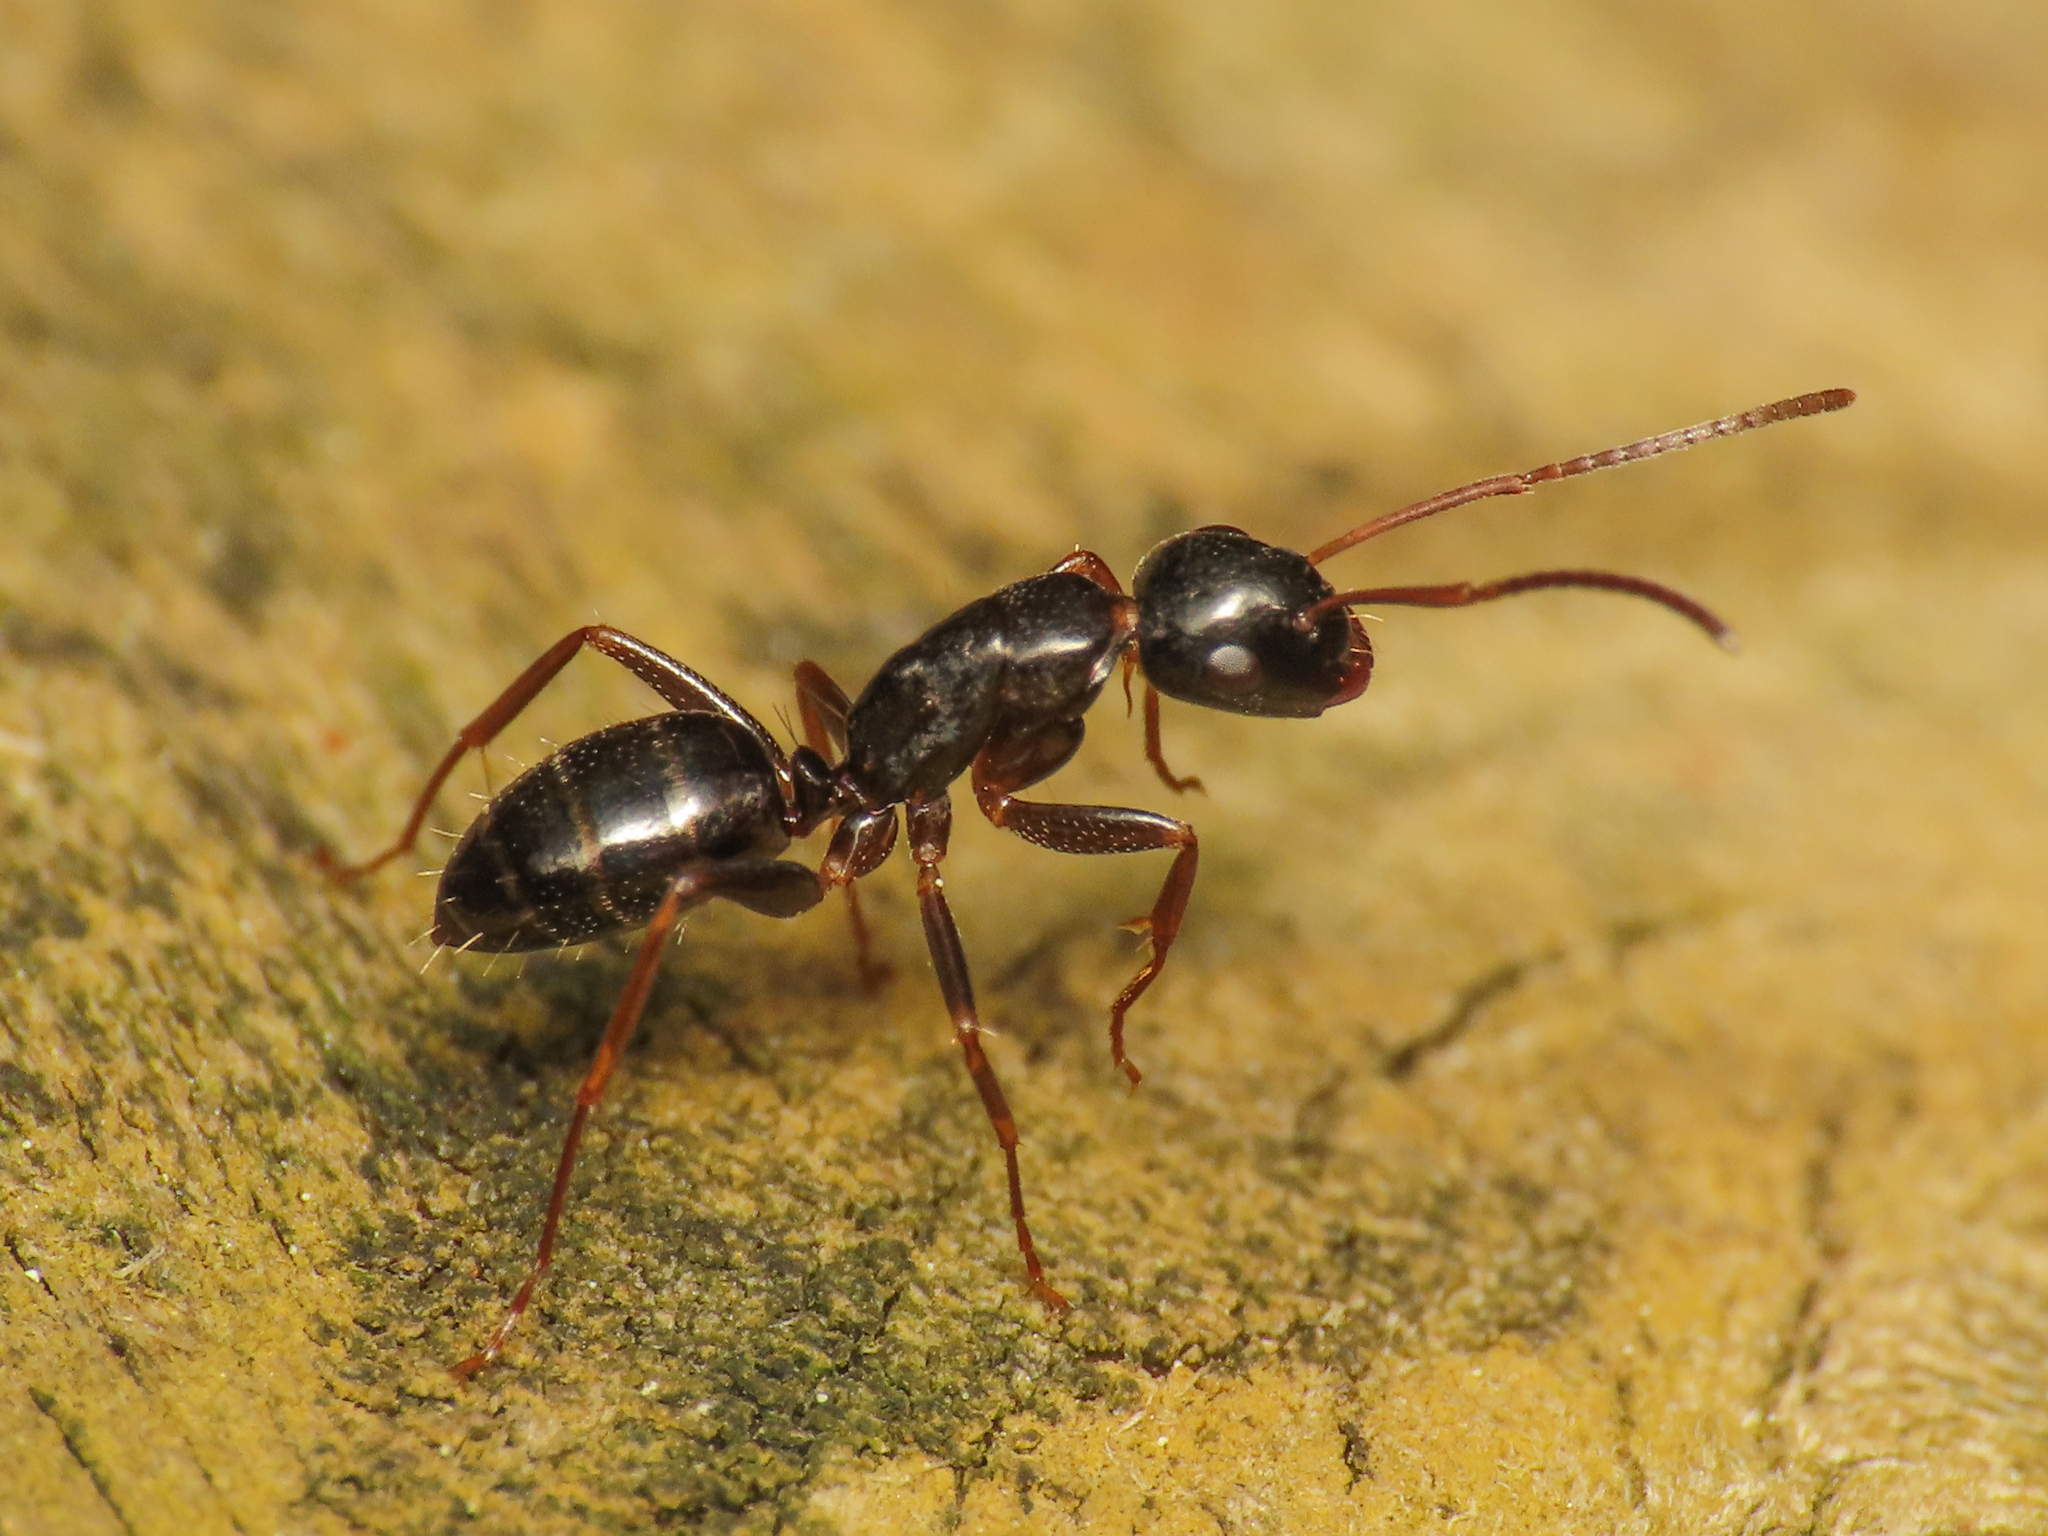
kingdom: Animalia
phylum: Arthropoda
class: Insecta
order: Hymenoptera
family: Formicidae
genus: Camponotus
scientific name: Camponotus fallax
